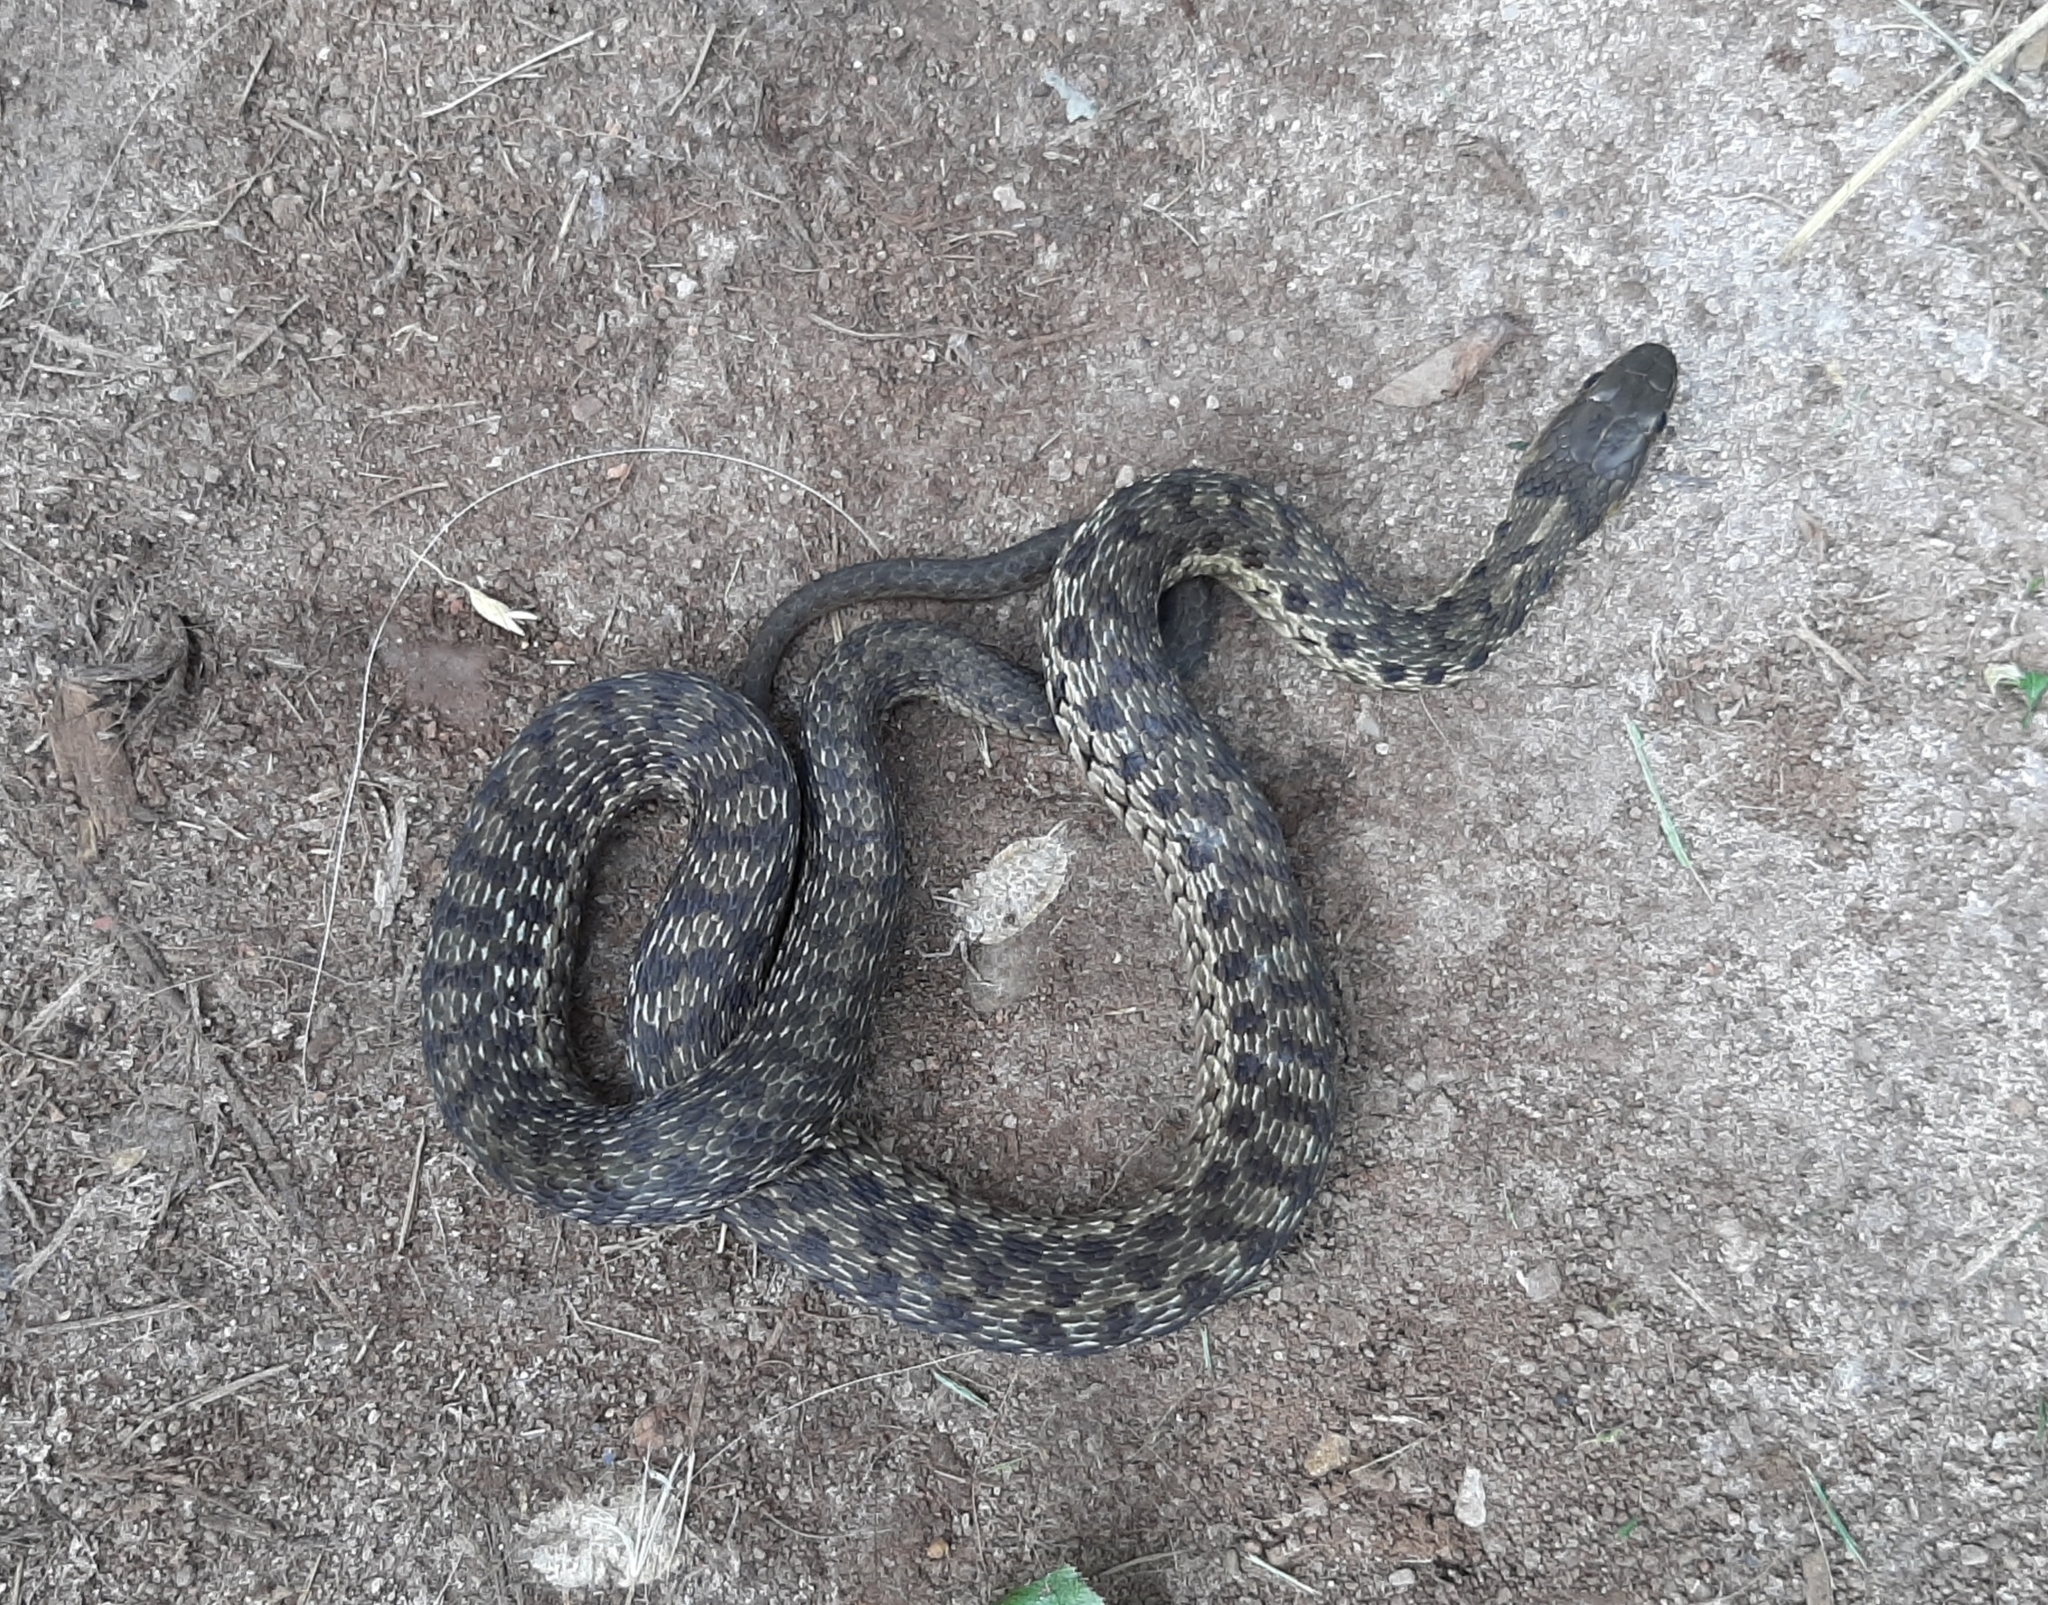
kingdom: Animalia
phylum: Chordata
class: Squamata
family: Colubridae
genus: Thamnophis
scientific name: Thamnophis sirtalis
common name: Common garter snake
